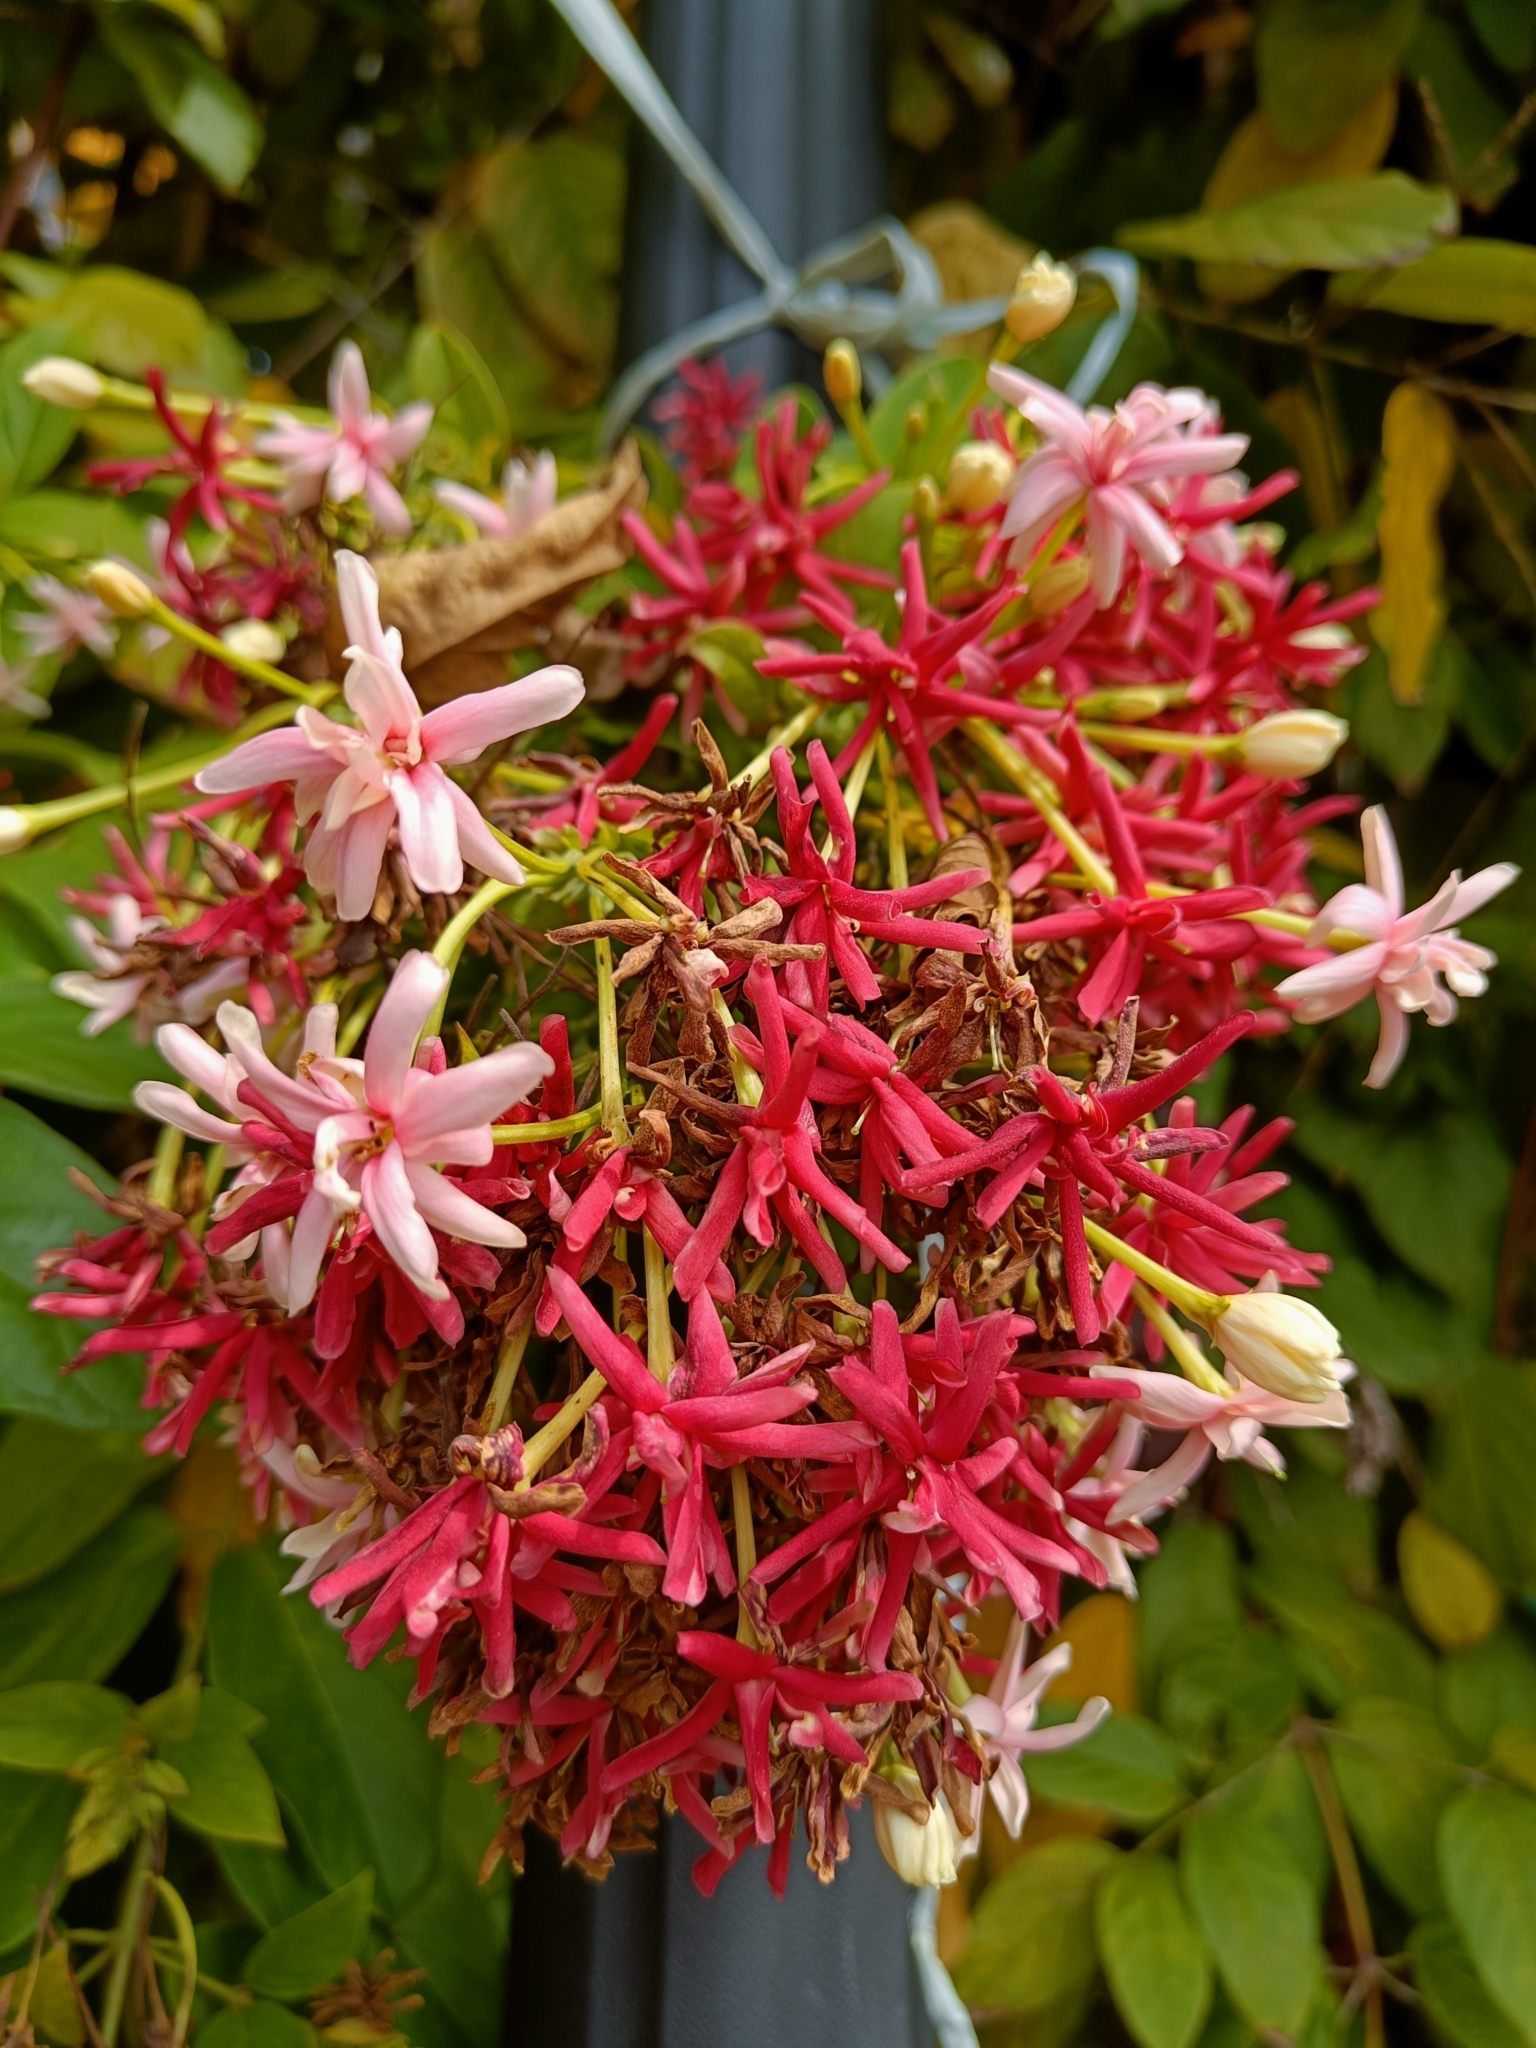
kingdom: Plantae
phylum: Tracheophyta
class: Magnoliopsida
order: Myrtales
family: Combretaceae
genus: Combretum
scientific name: Combretum indicum
